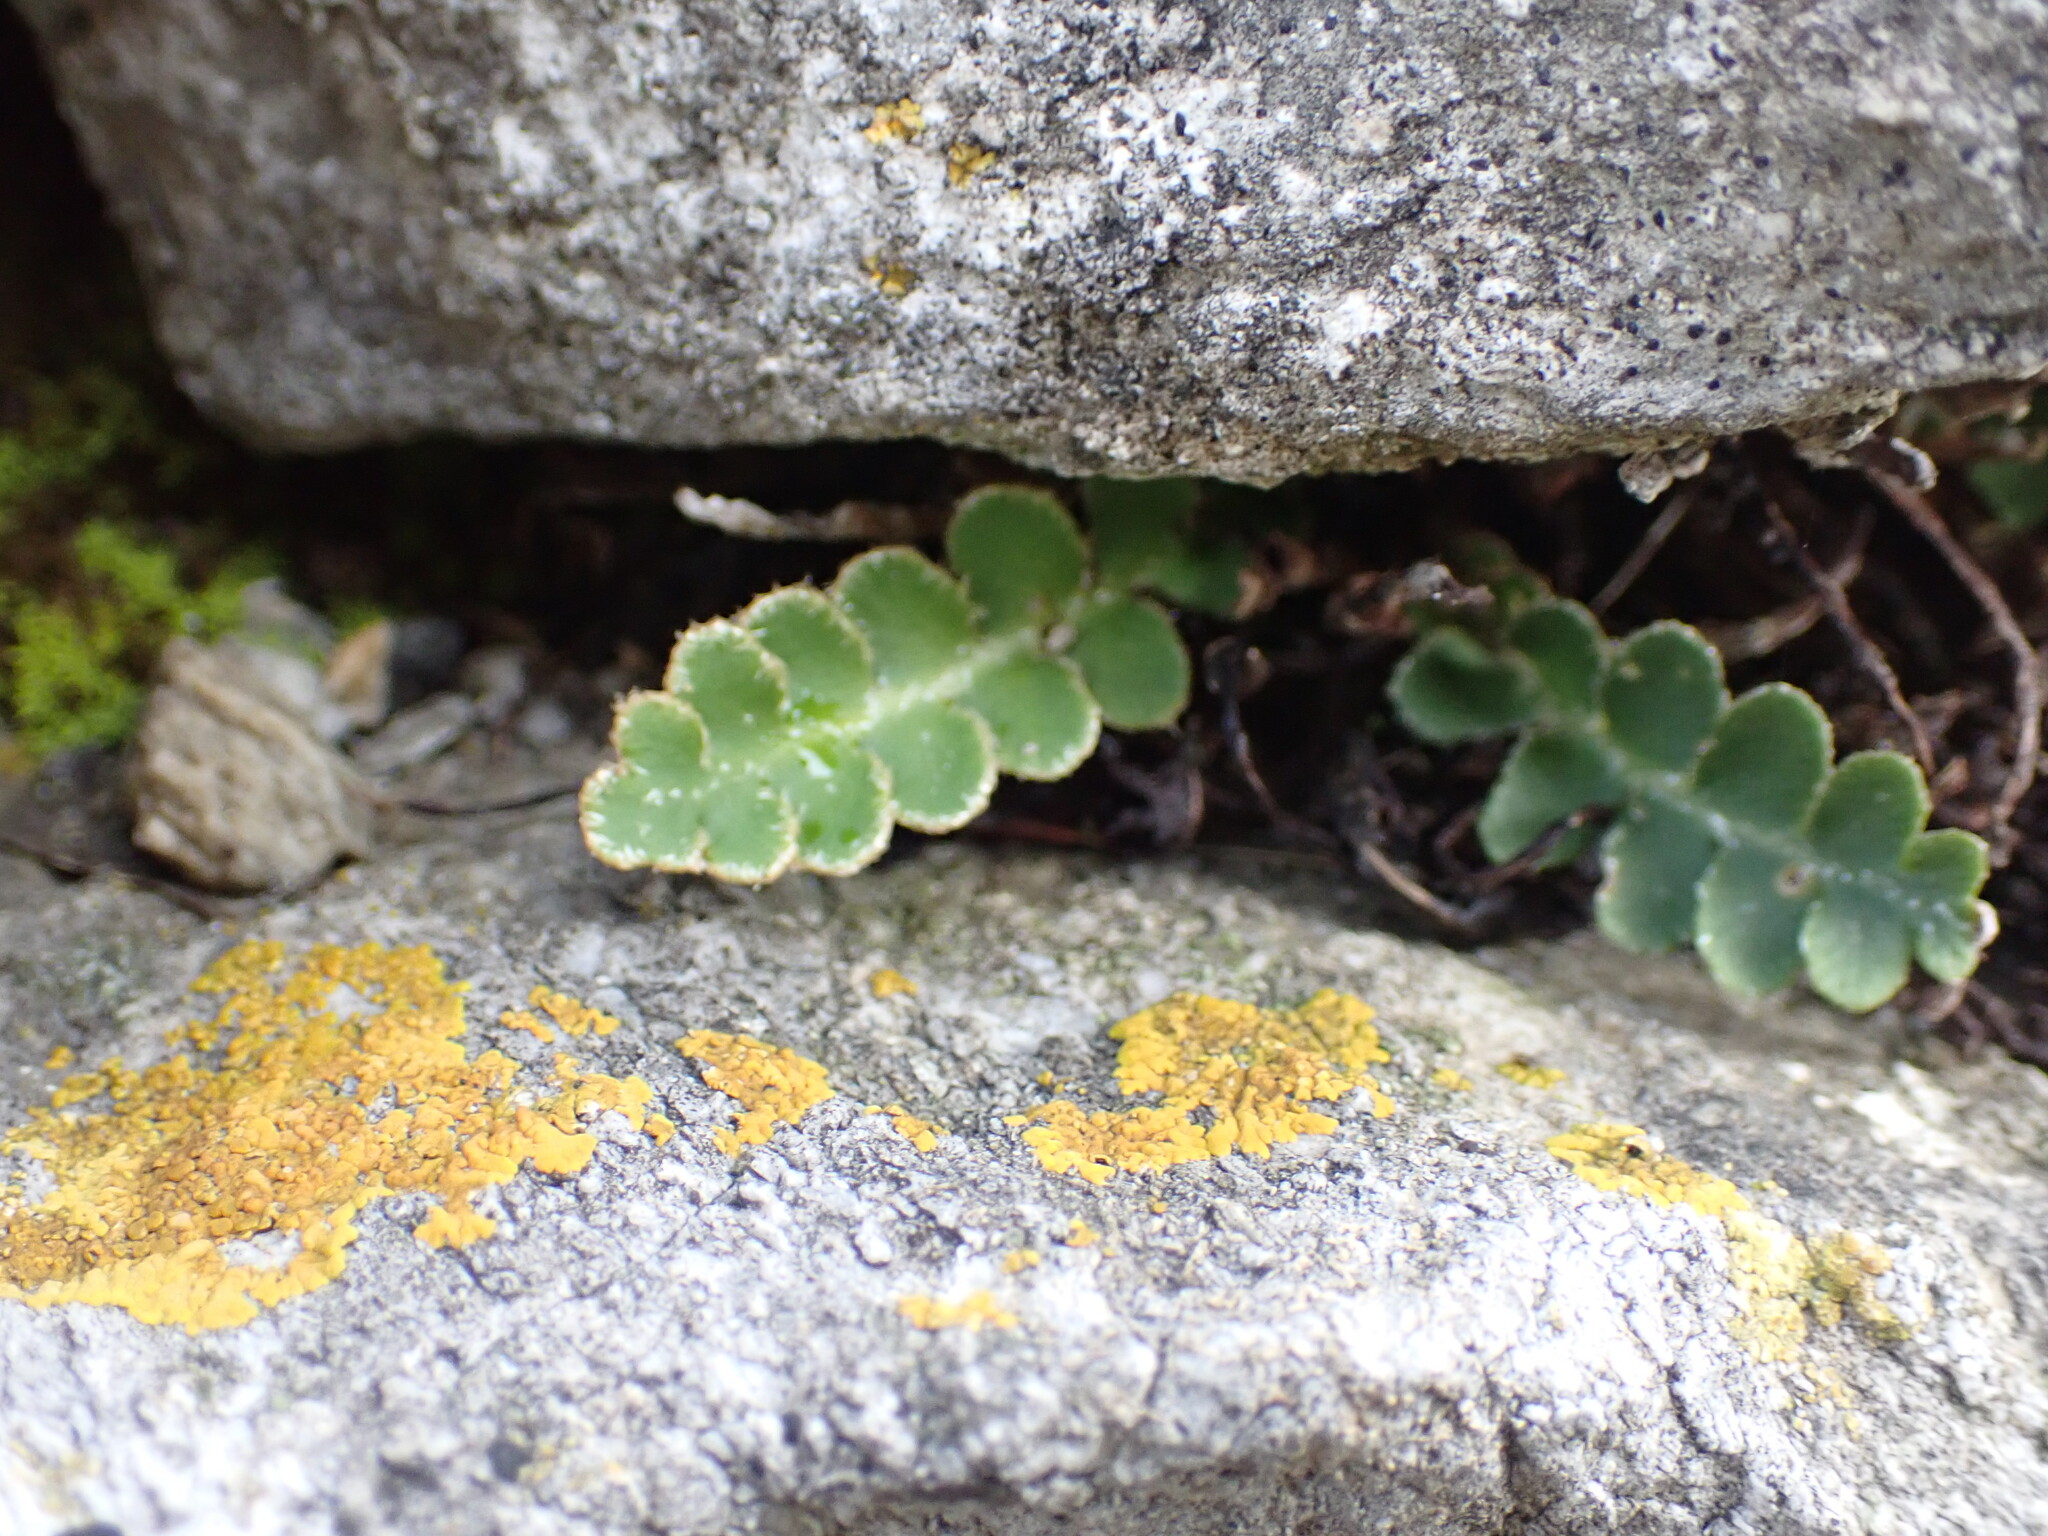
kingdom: Plantae
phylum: Tracheophyta
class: Polypodiopsida
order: Polypodiales
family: Aspleniaceae
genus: Asplenium
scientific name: Asplenium ceterach
